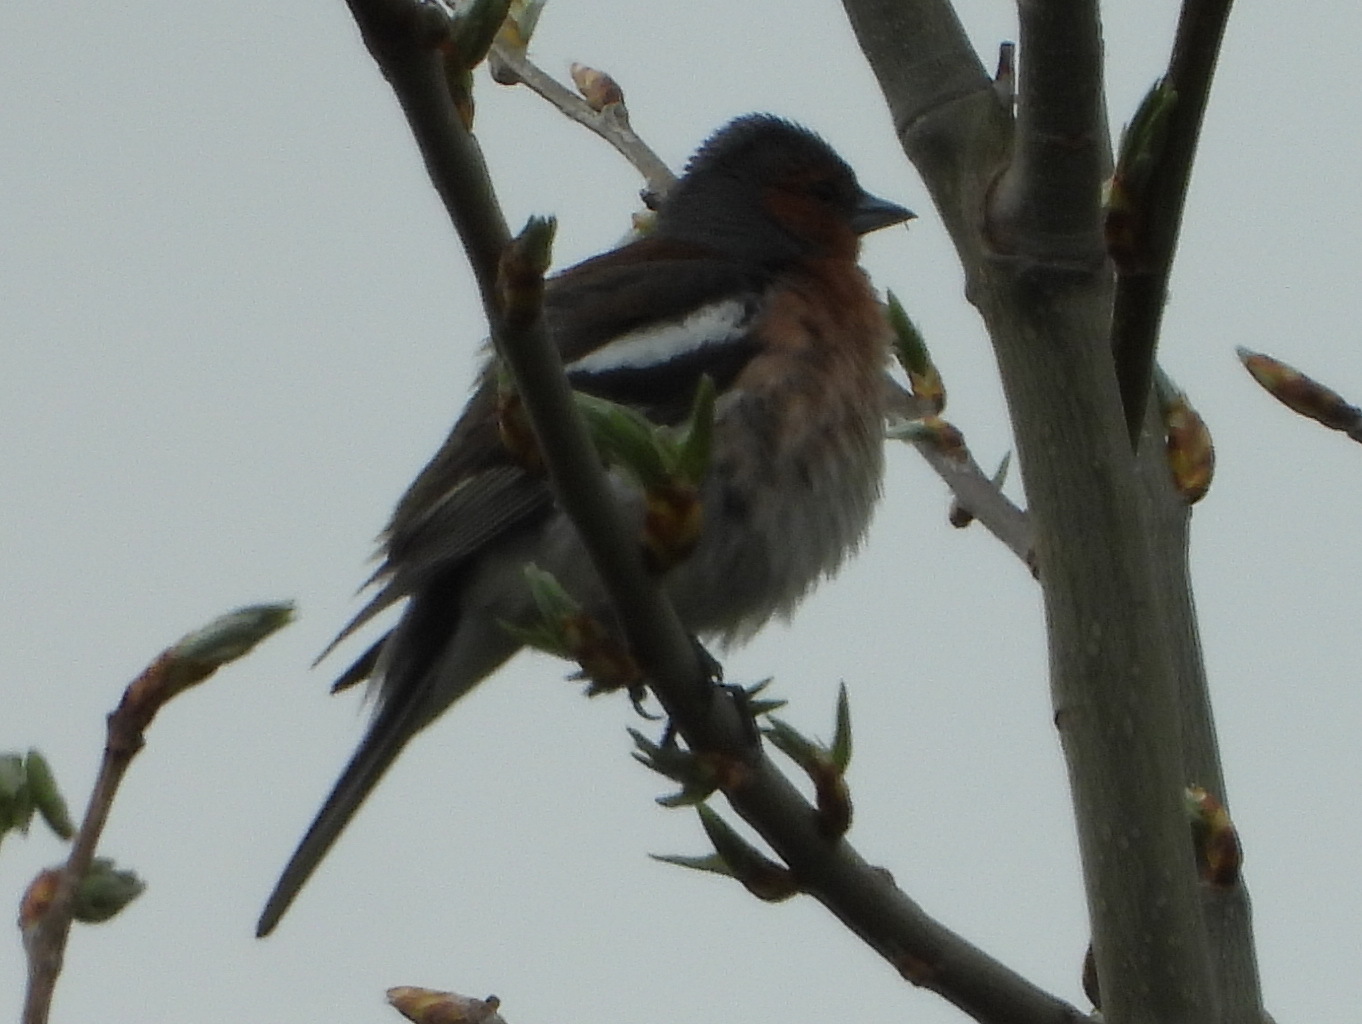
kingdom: Animalia
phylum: Chordata
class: Aves
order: Passeriformes
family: Fringillidae
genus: Fringilla
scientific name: Fringilla coelebs
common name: Common chaffinch
